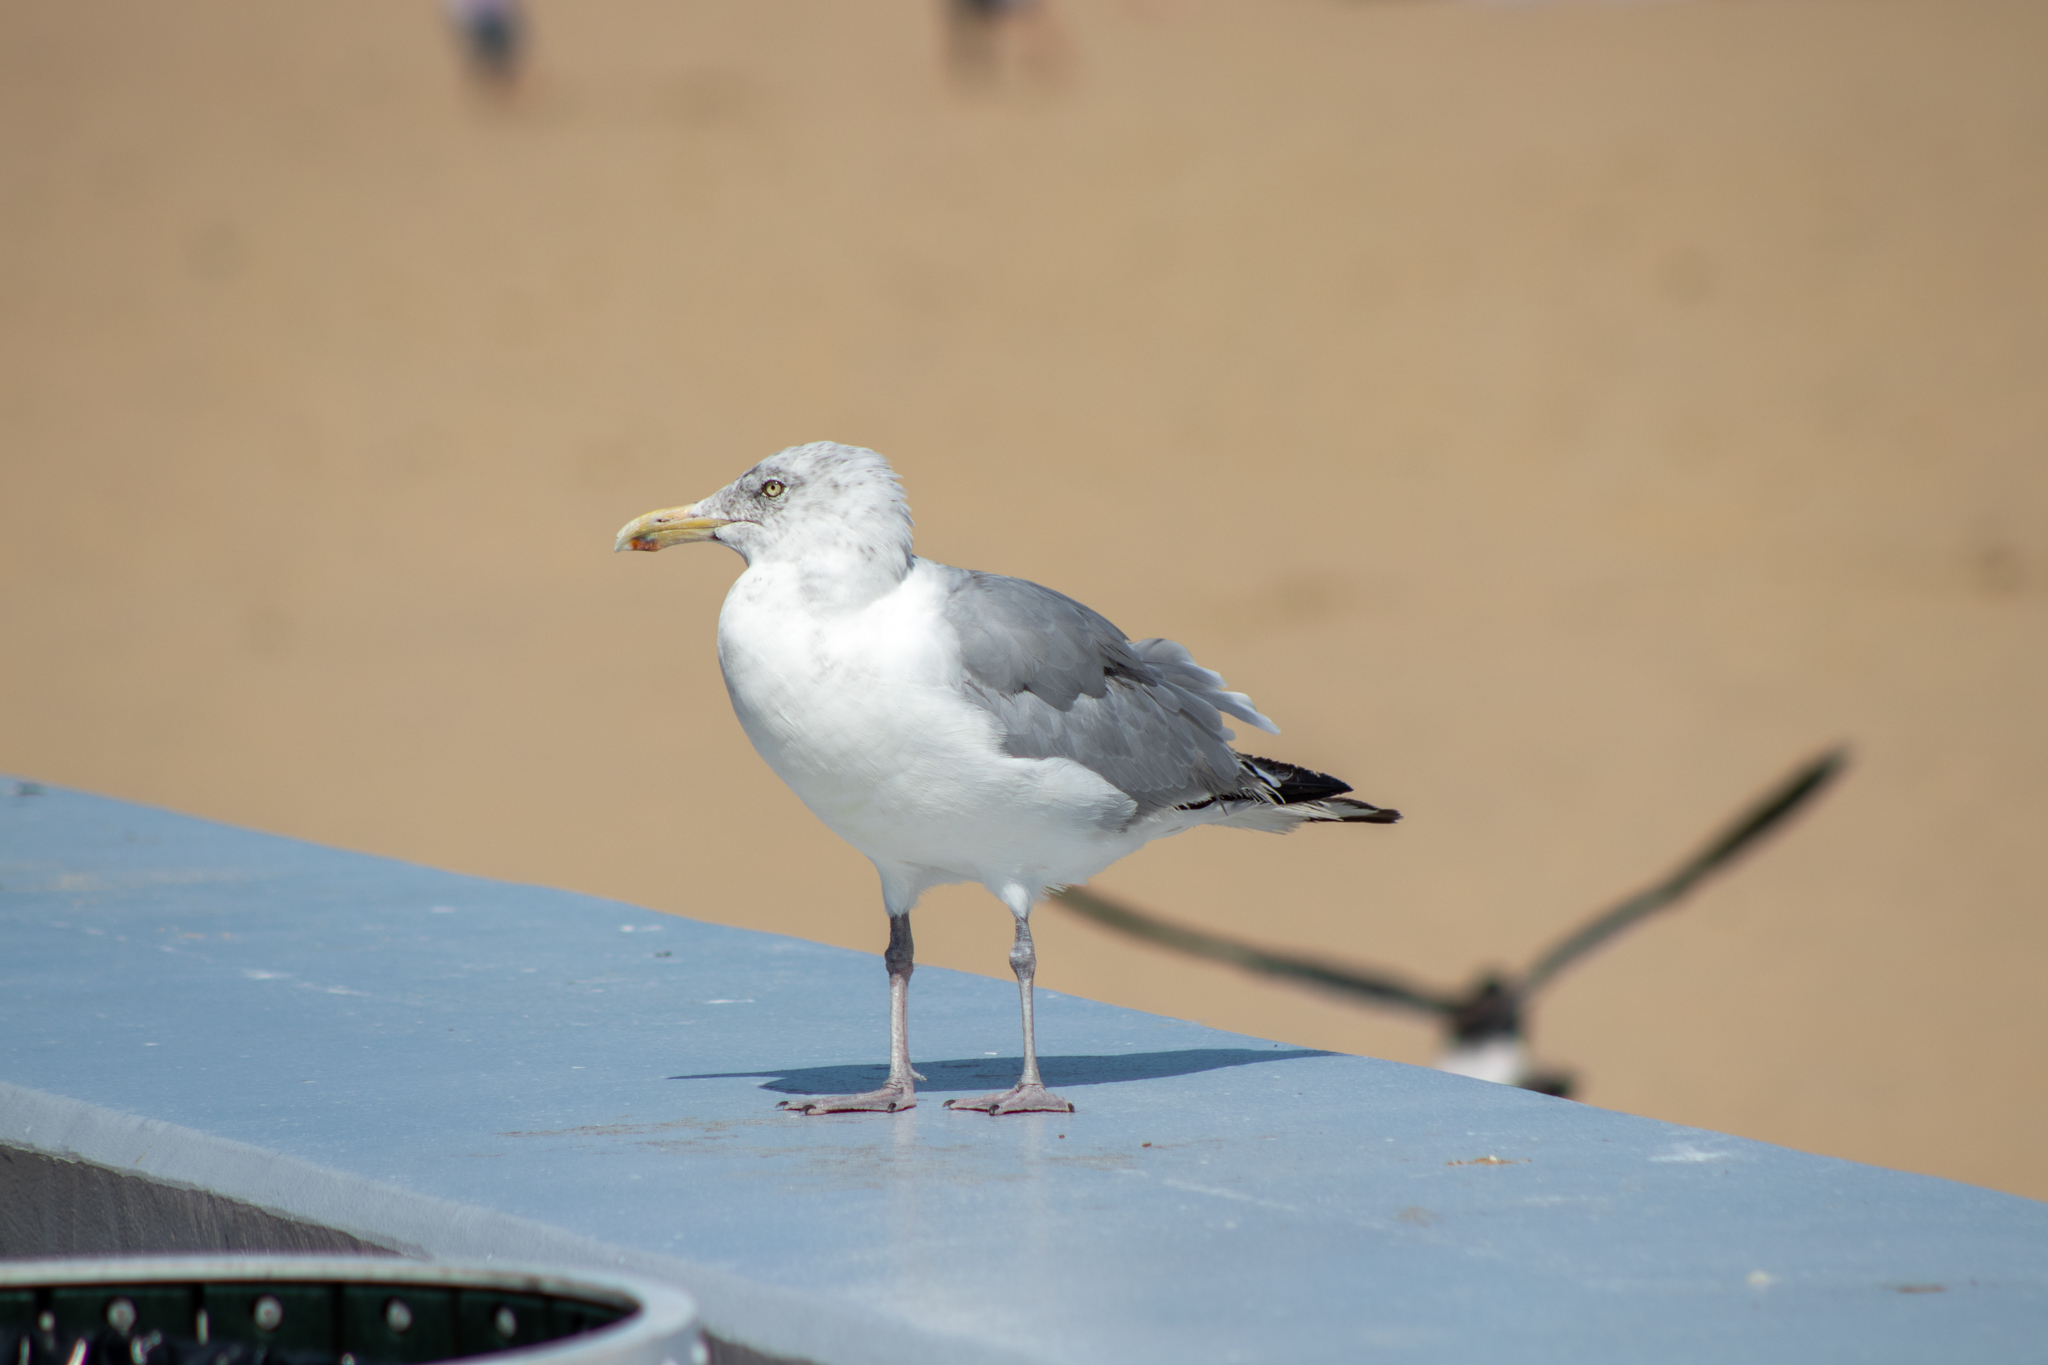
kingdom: Animalia
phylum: Chordata
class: Aves
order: Charadriiformes
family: Laridae
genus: Larus
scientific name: Larus argentatus
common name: Herring gull
